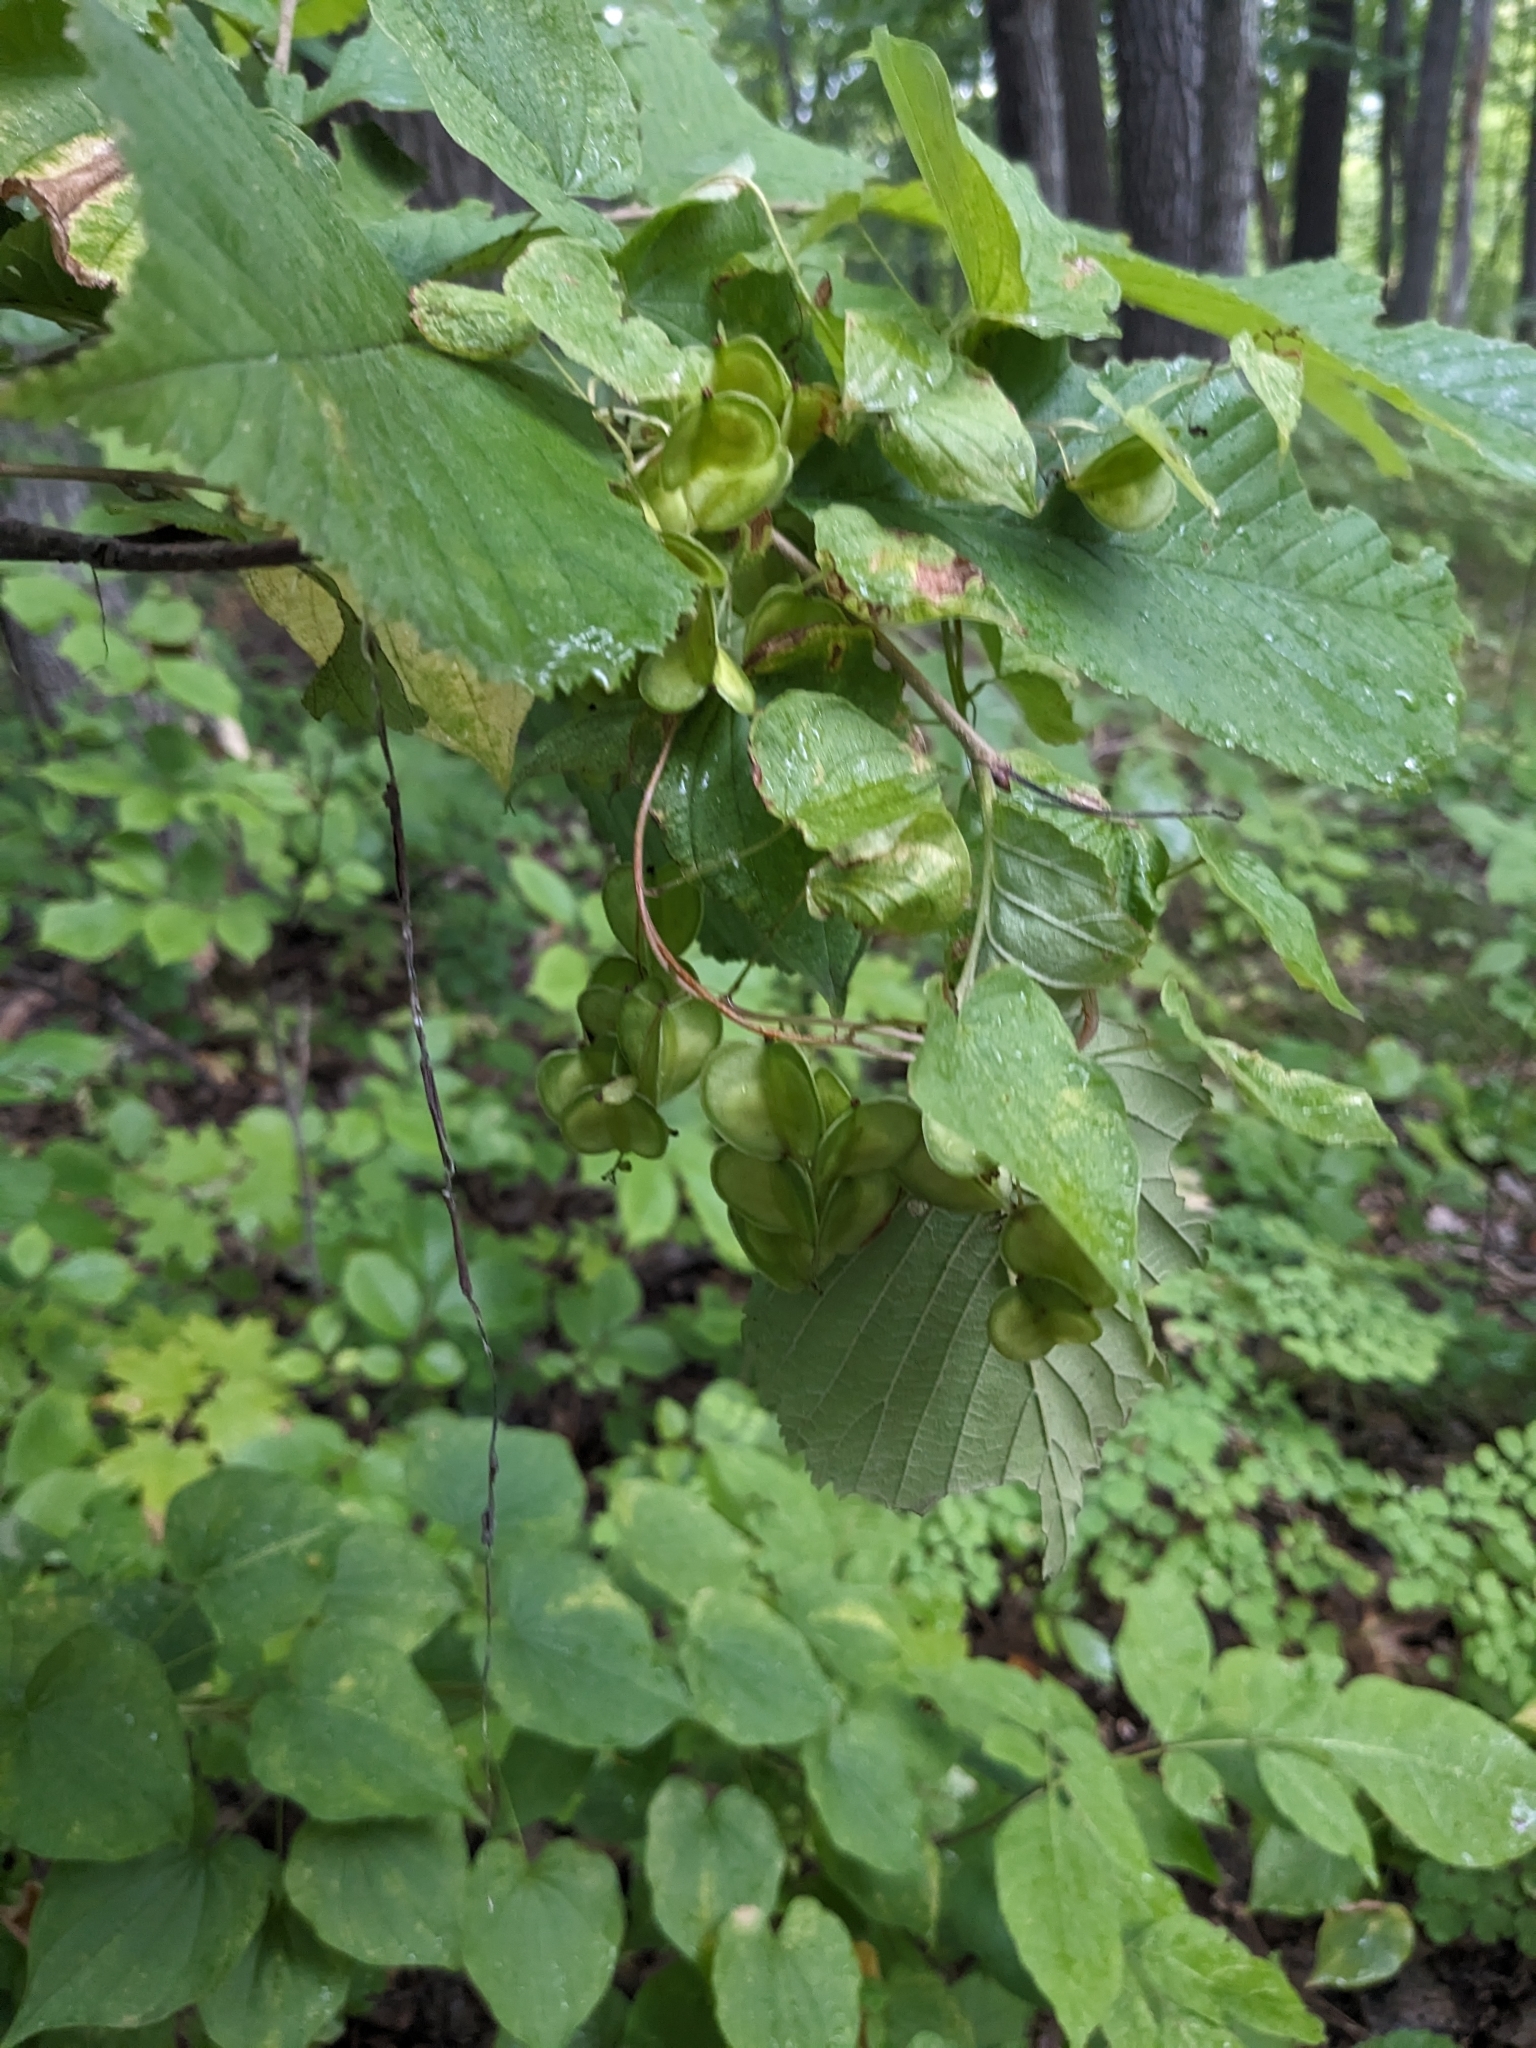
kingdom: Plantae
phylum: Tracheophyta
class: Liliopsida
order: Dioscoreales
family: Dioscoreaceae
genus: Dioscorea
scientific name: Dioscorea villosa
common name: Wild yam
